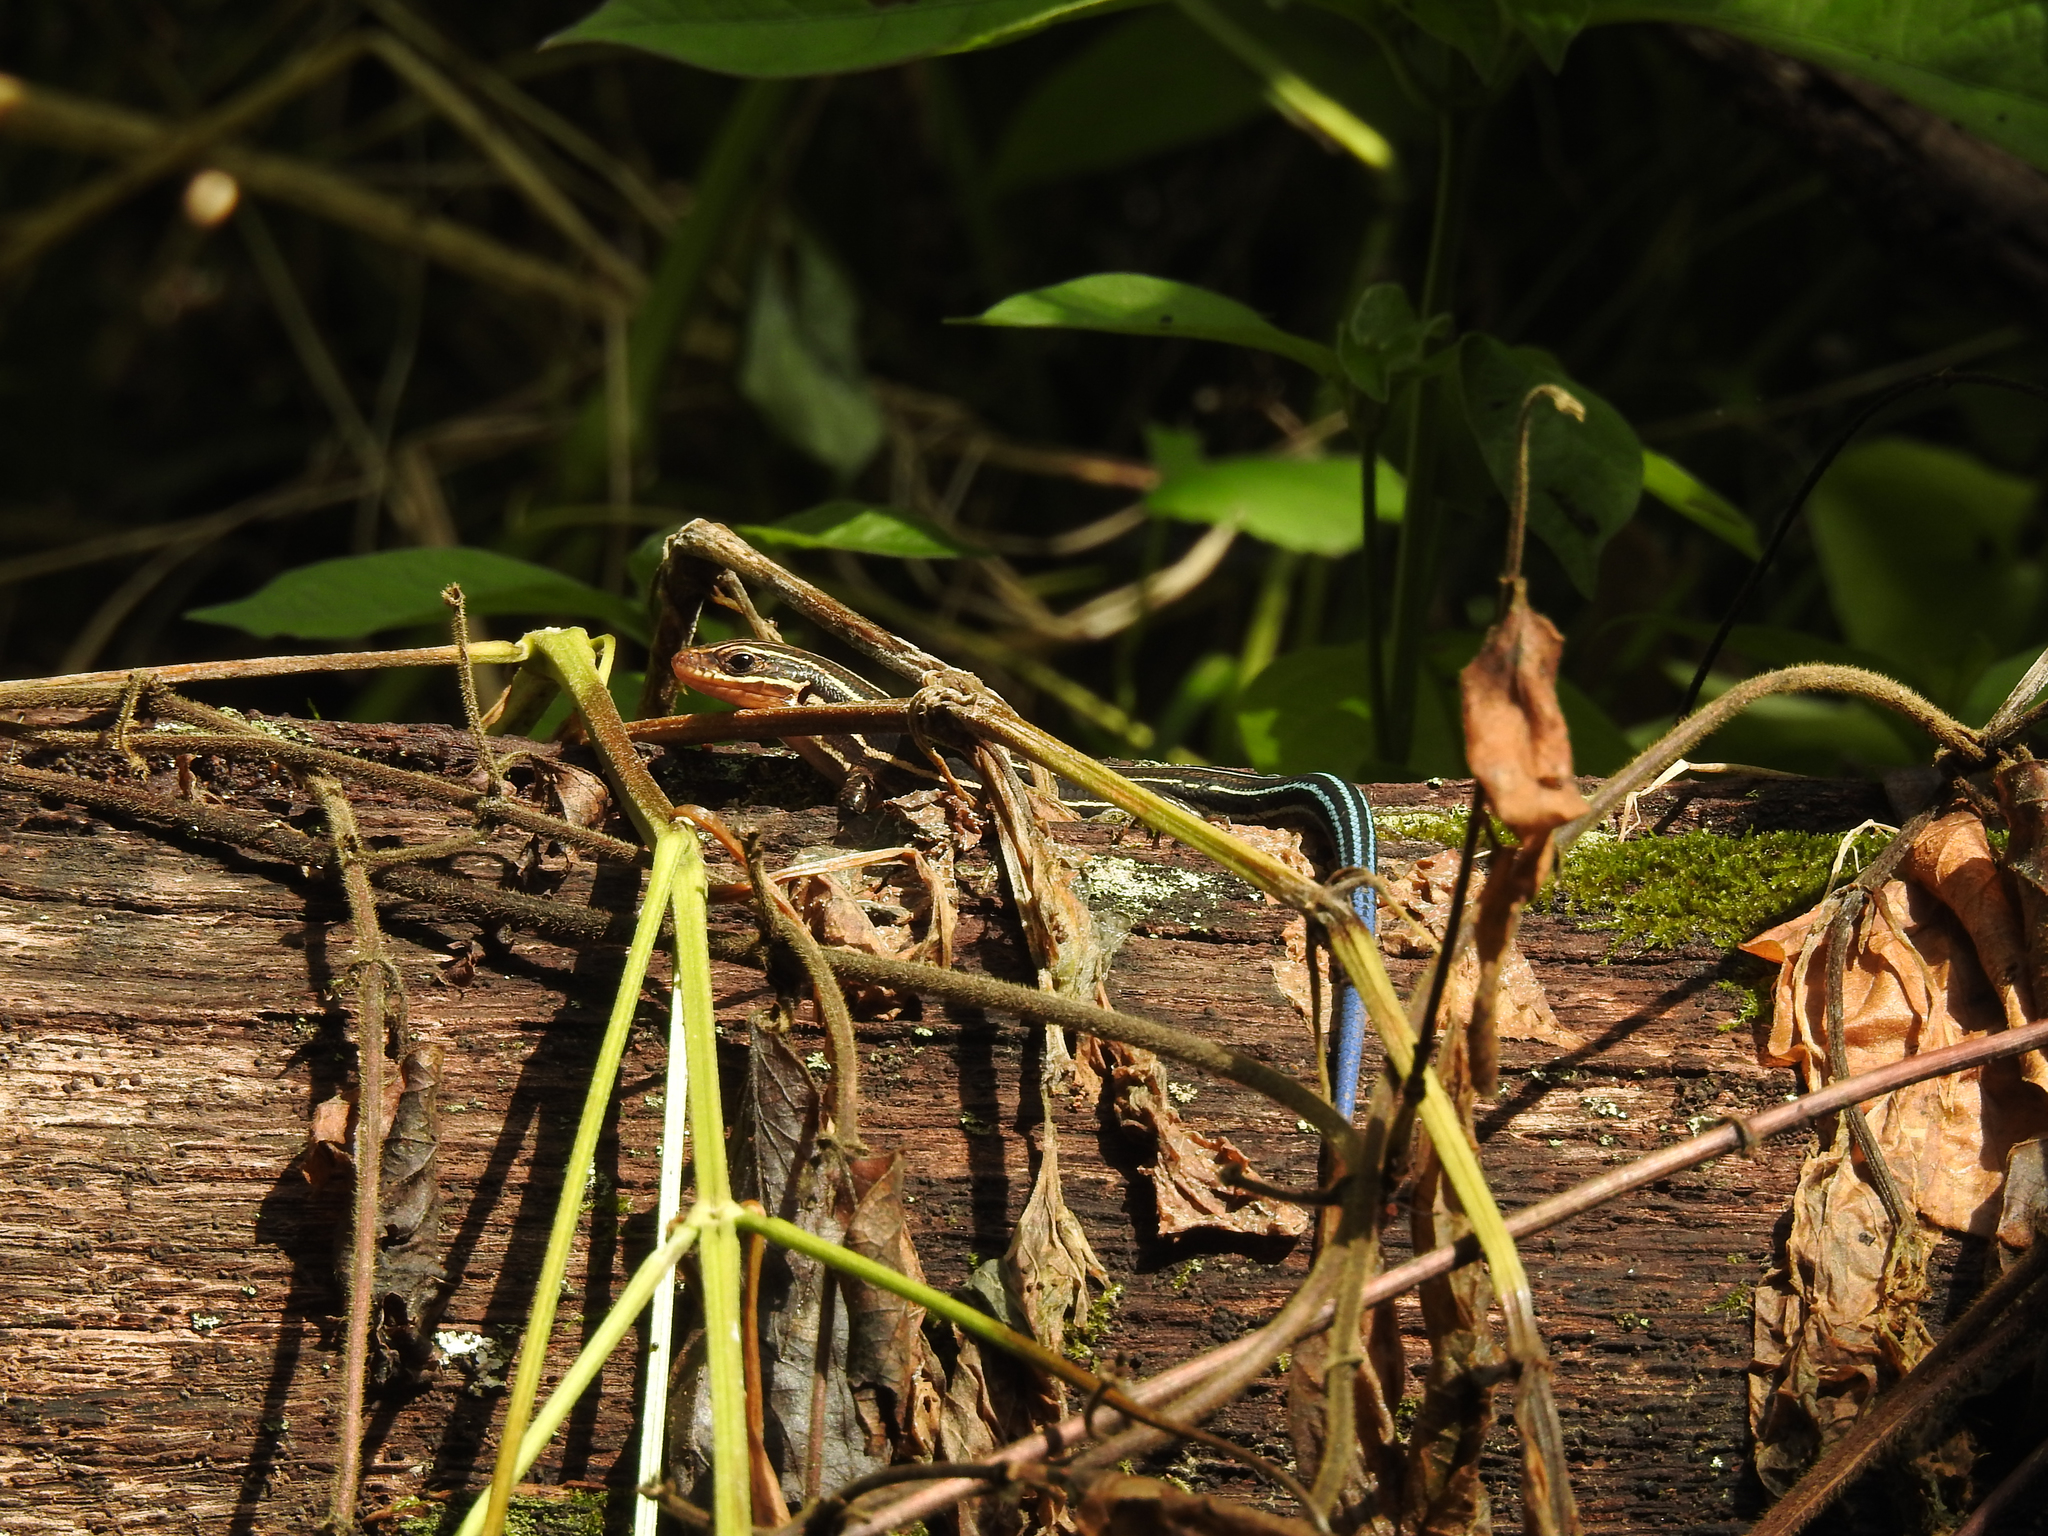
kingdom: Animalia
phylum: Chordata
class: Squamata
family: Scincidae
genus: Plestiodon
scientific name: Plestiodon laticeps
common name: Broadhead skink
